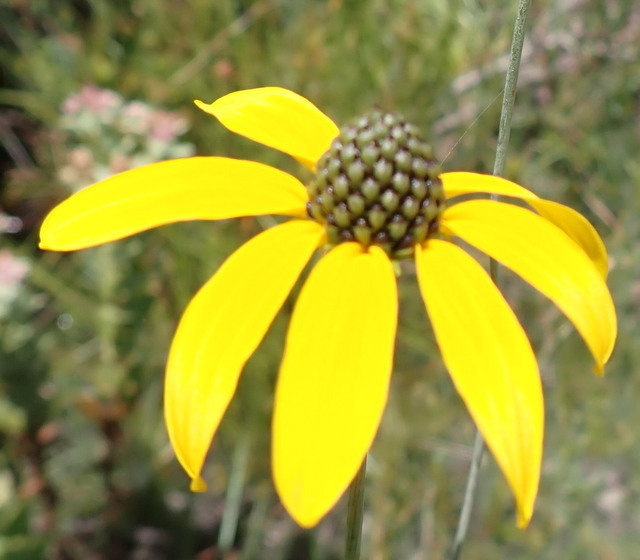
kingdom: Plantae
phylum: Tracheophyta
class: Magnoliopsida
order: Asterales
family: Asteraceae
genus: Ratibida
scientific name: Ratibida pinnata
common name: Drooping prairie-coneflower
